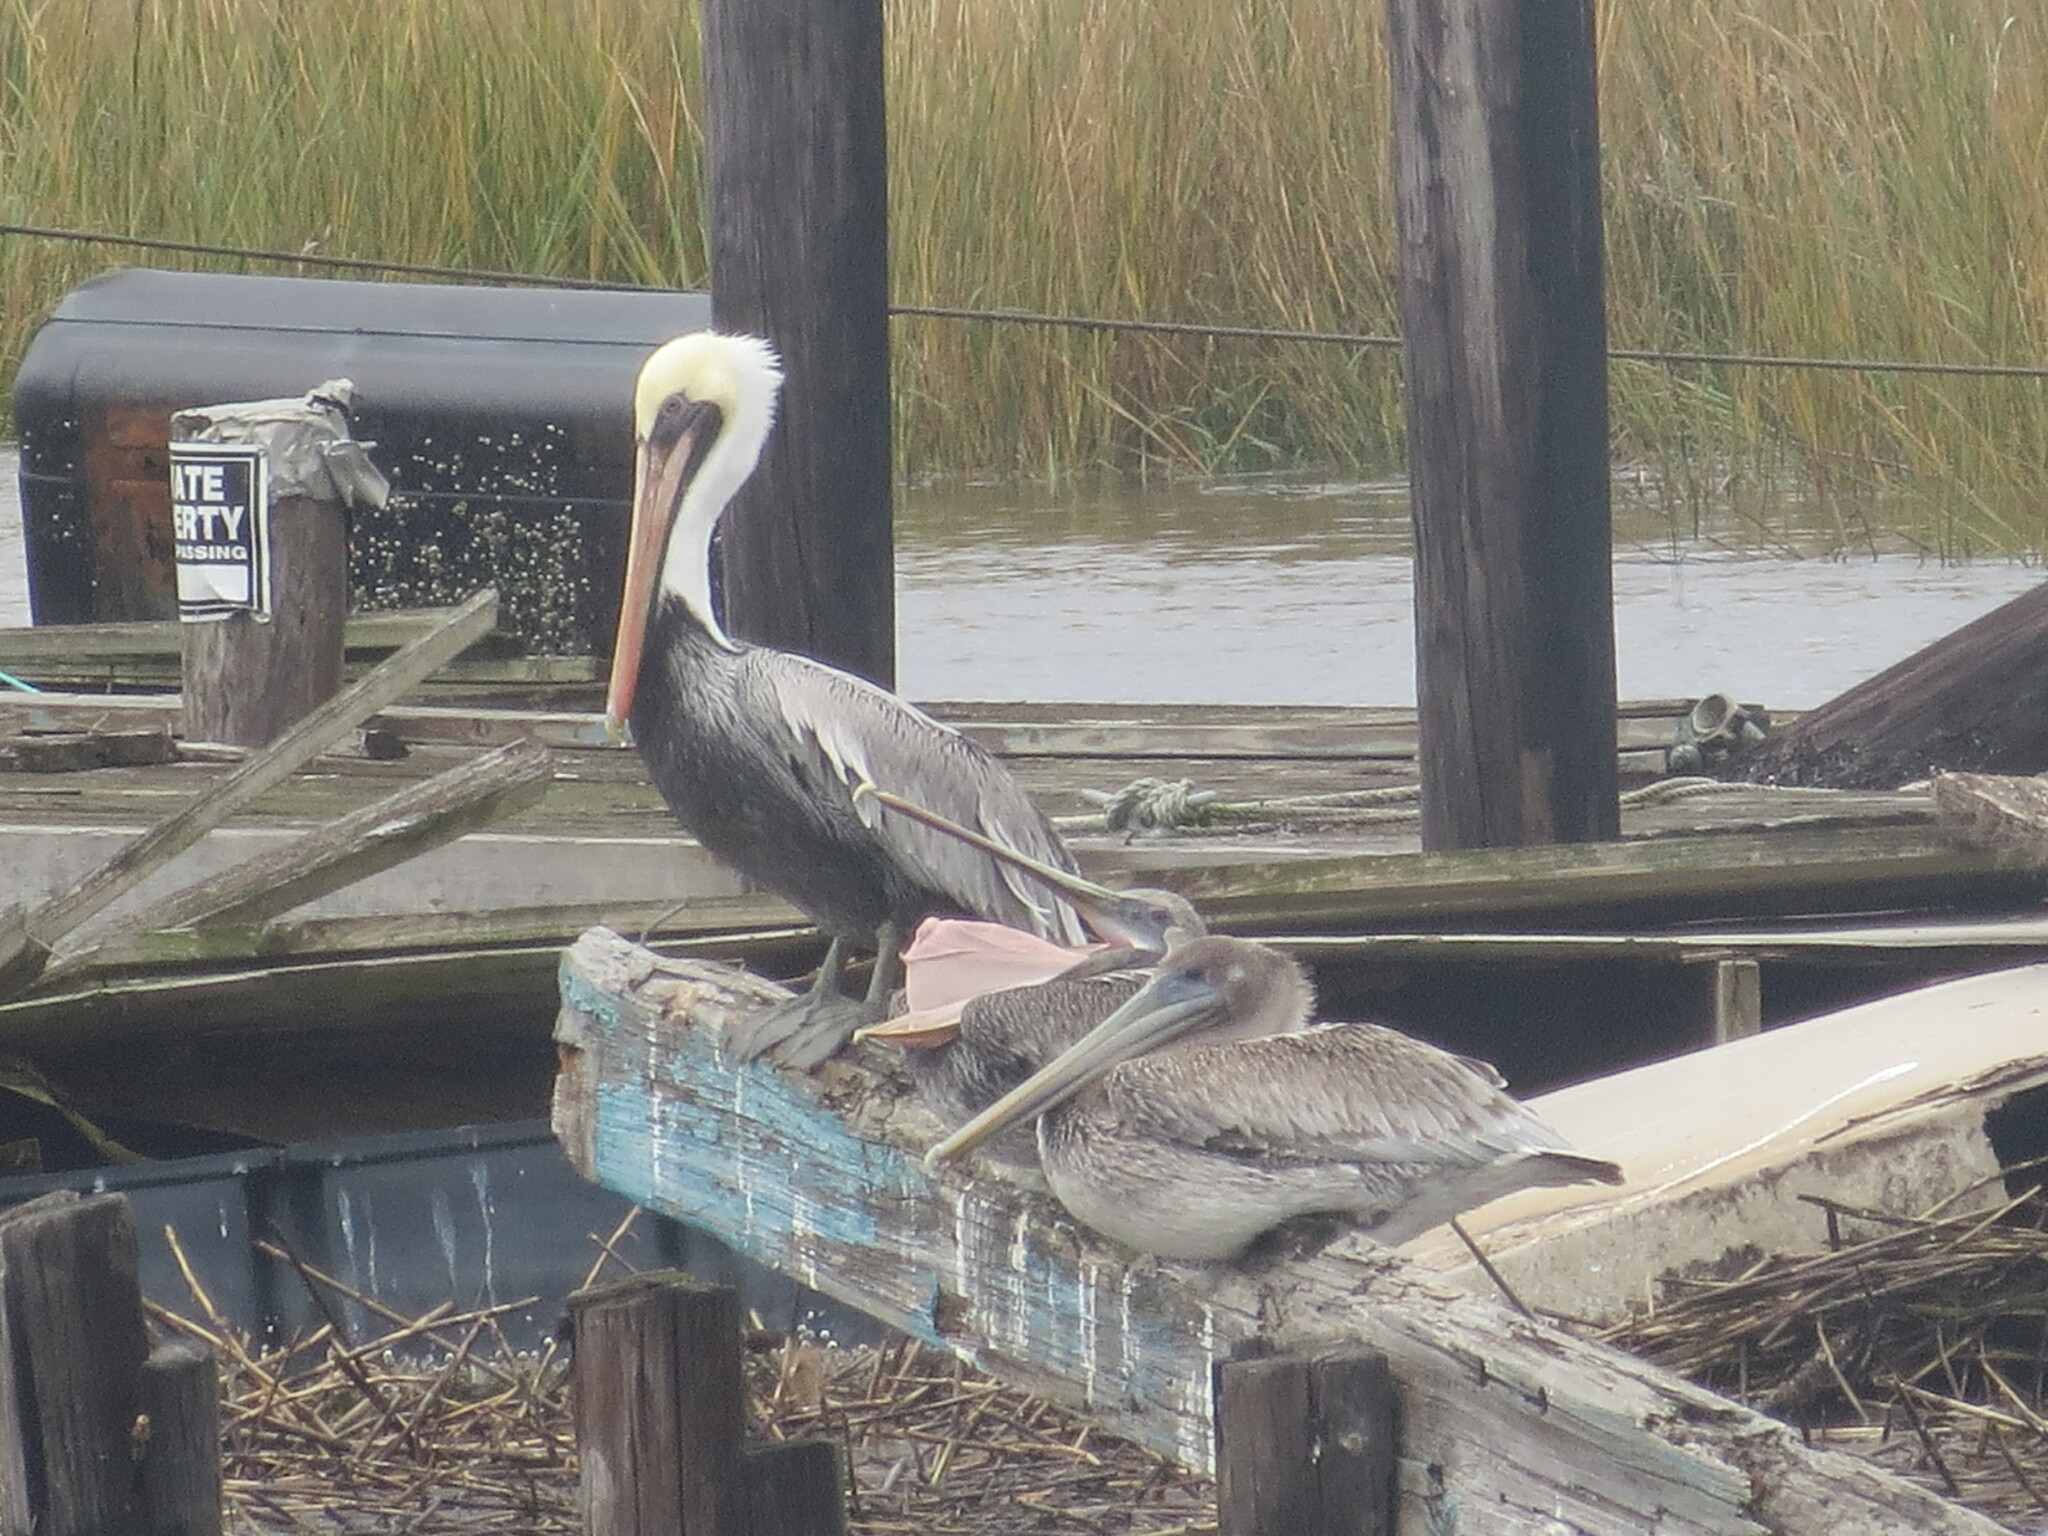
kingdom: Animalia
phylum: Chordata
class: Aves
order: Pelecaniformes
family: Pelecanidae
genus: Pelecanus
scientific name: Pelecanus occidentalis
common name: Brown pelican
